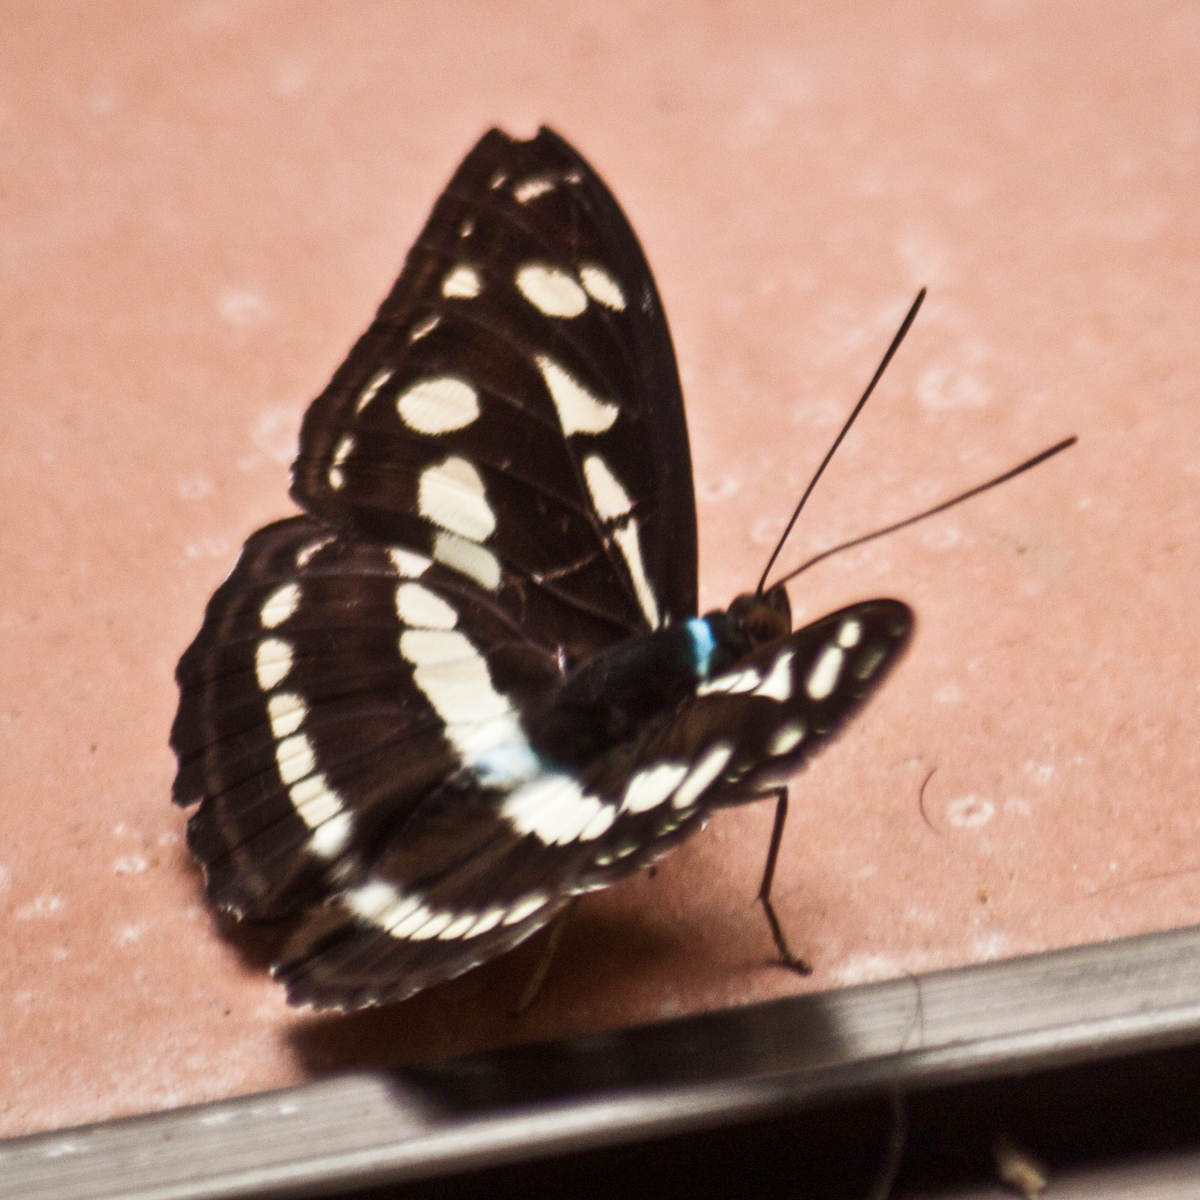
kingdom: Animalia
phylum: Arthropoda
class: Insecta
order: Lepidoptera
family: Nymphalidae
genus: Pantoporia
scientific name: Pantoporia larymna
